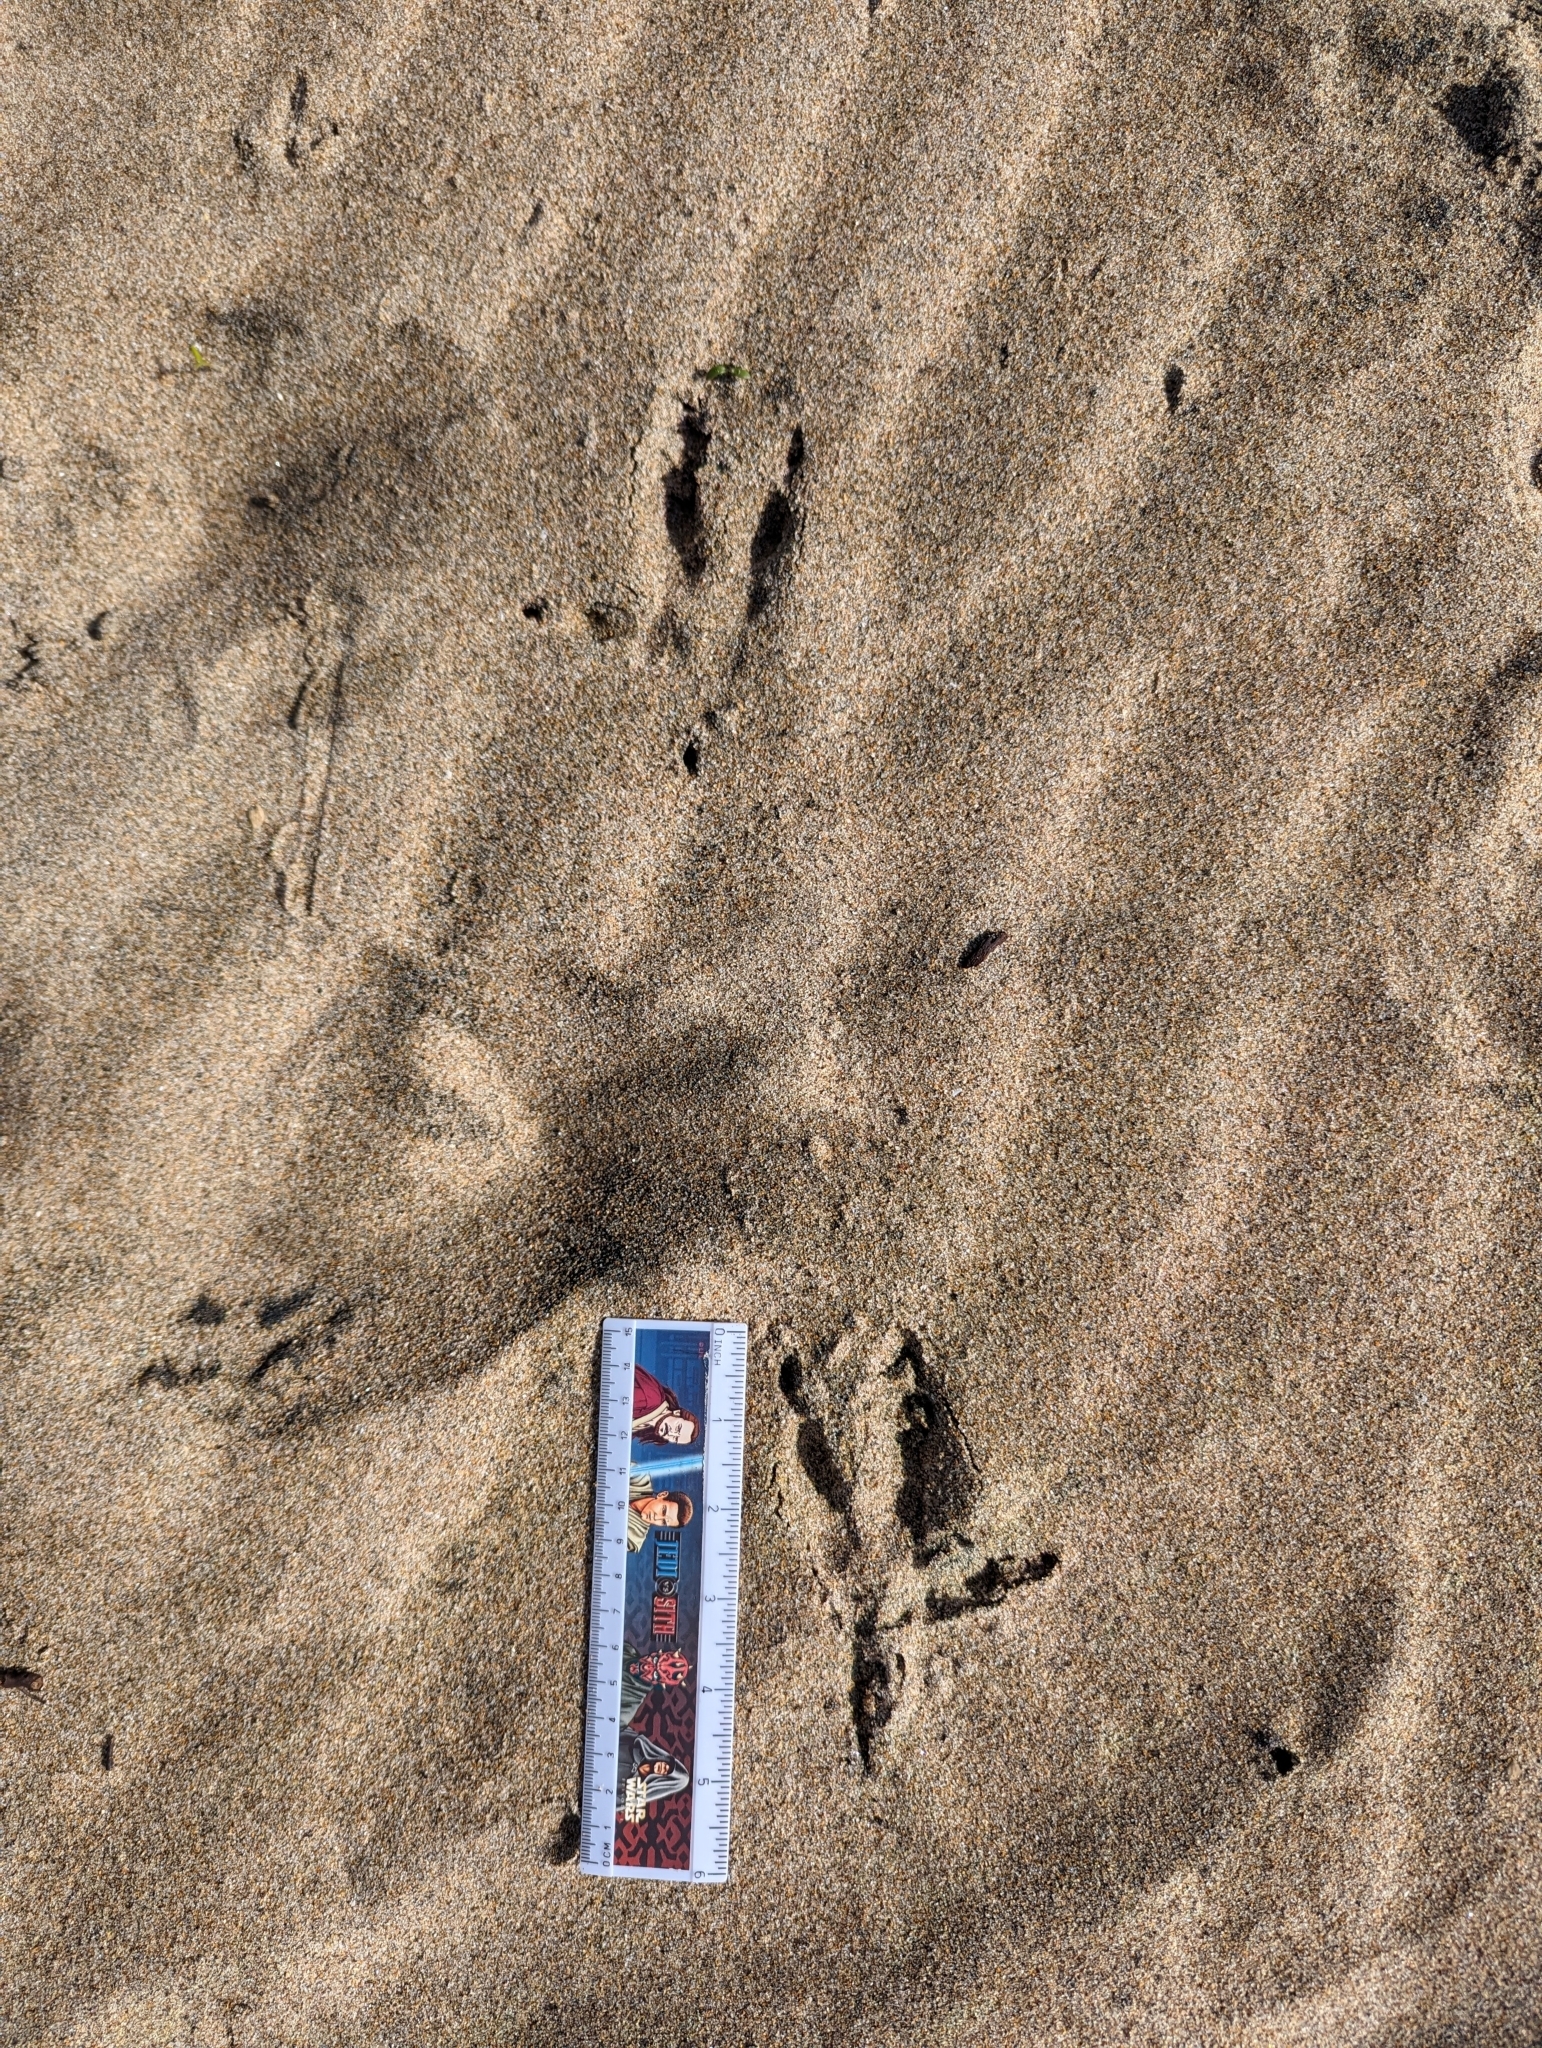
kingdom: Animalia
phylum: Chordata
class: Aves
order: Strigiformes
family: Strigidae
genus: Bubo
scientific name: Bubo virginianus
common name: Great horned owl
